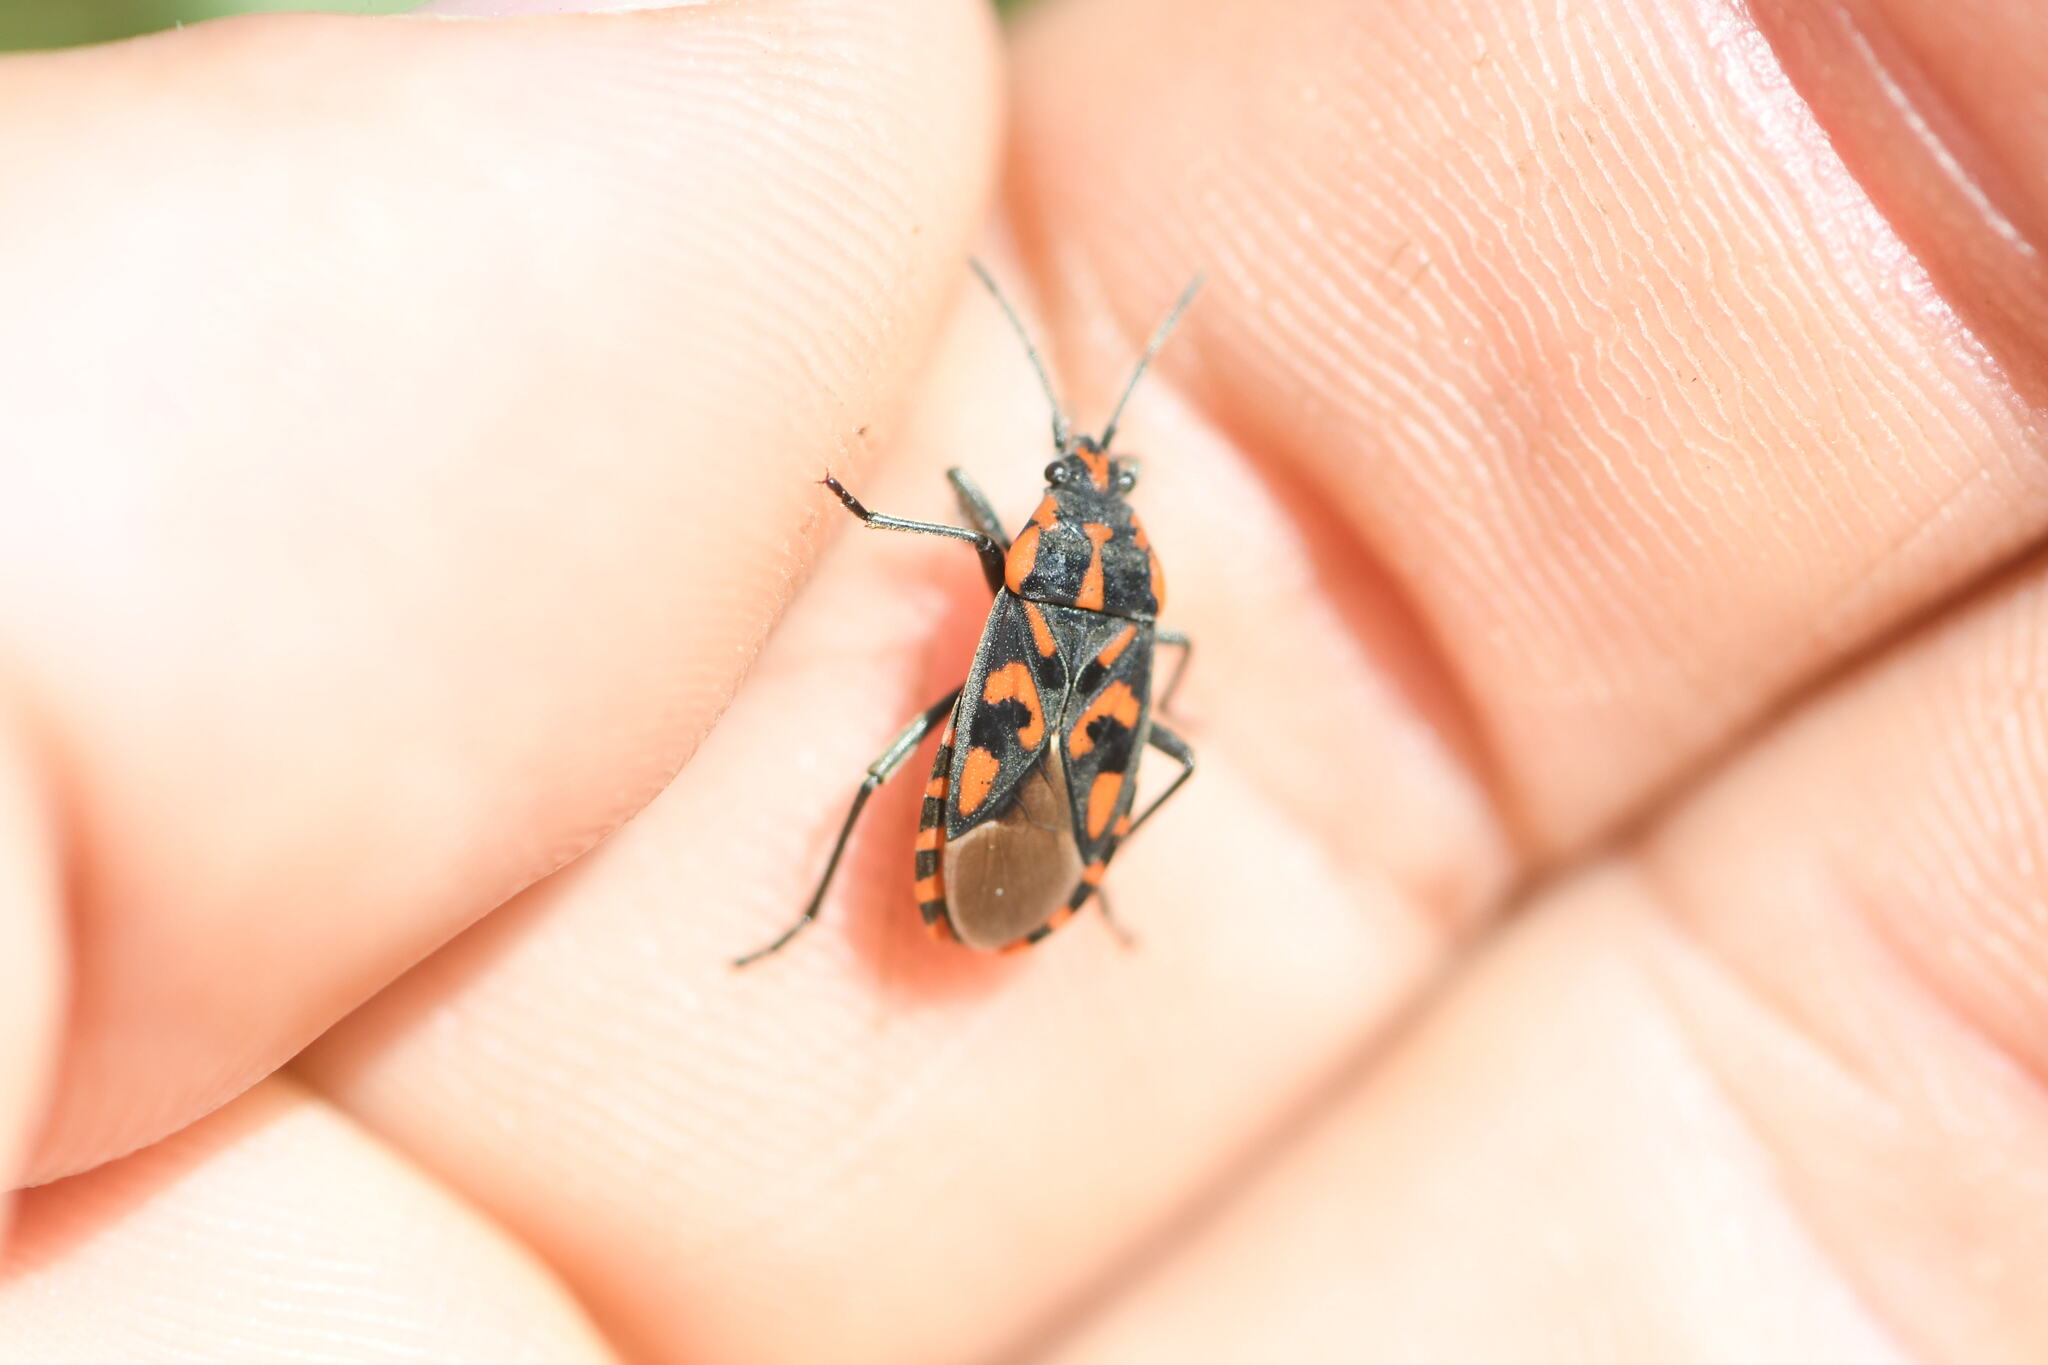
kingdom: Animalia
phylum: Arthropoda
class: Insecta
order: Hemiptera
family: Lygaeidae
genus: Spilostethus
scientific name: Spilostethus saxatilis
